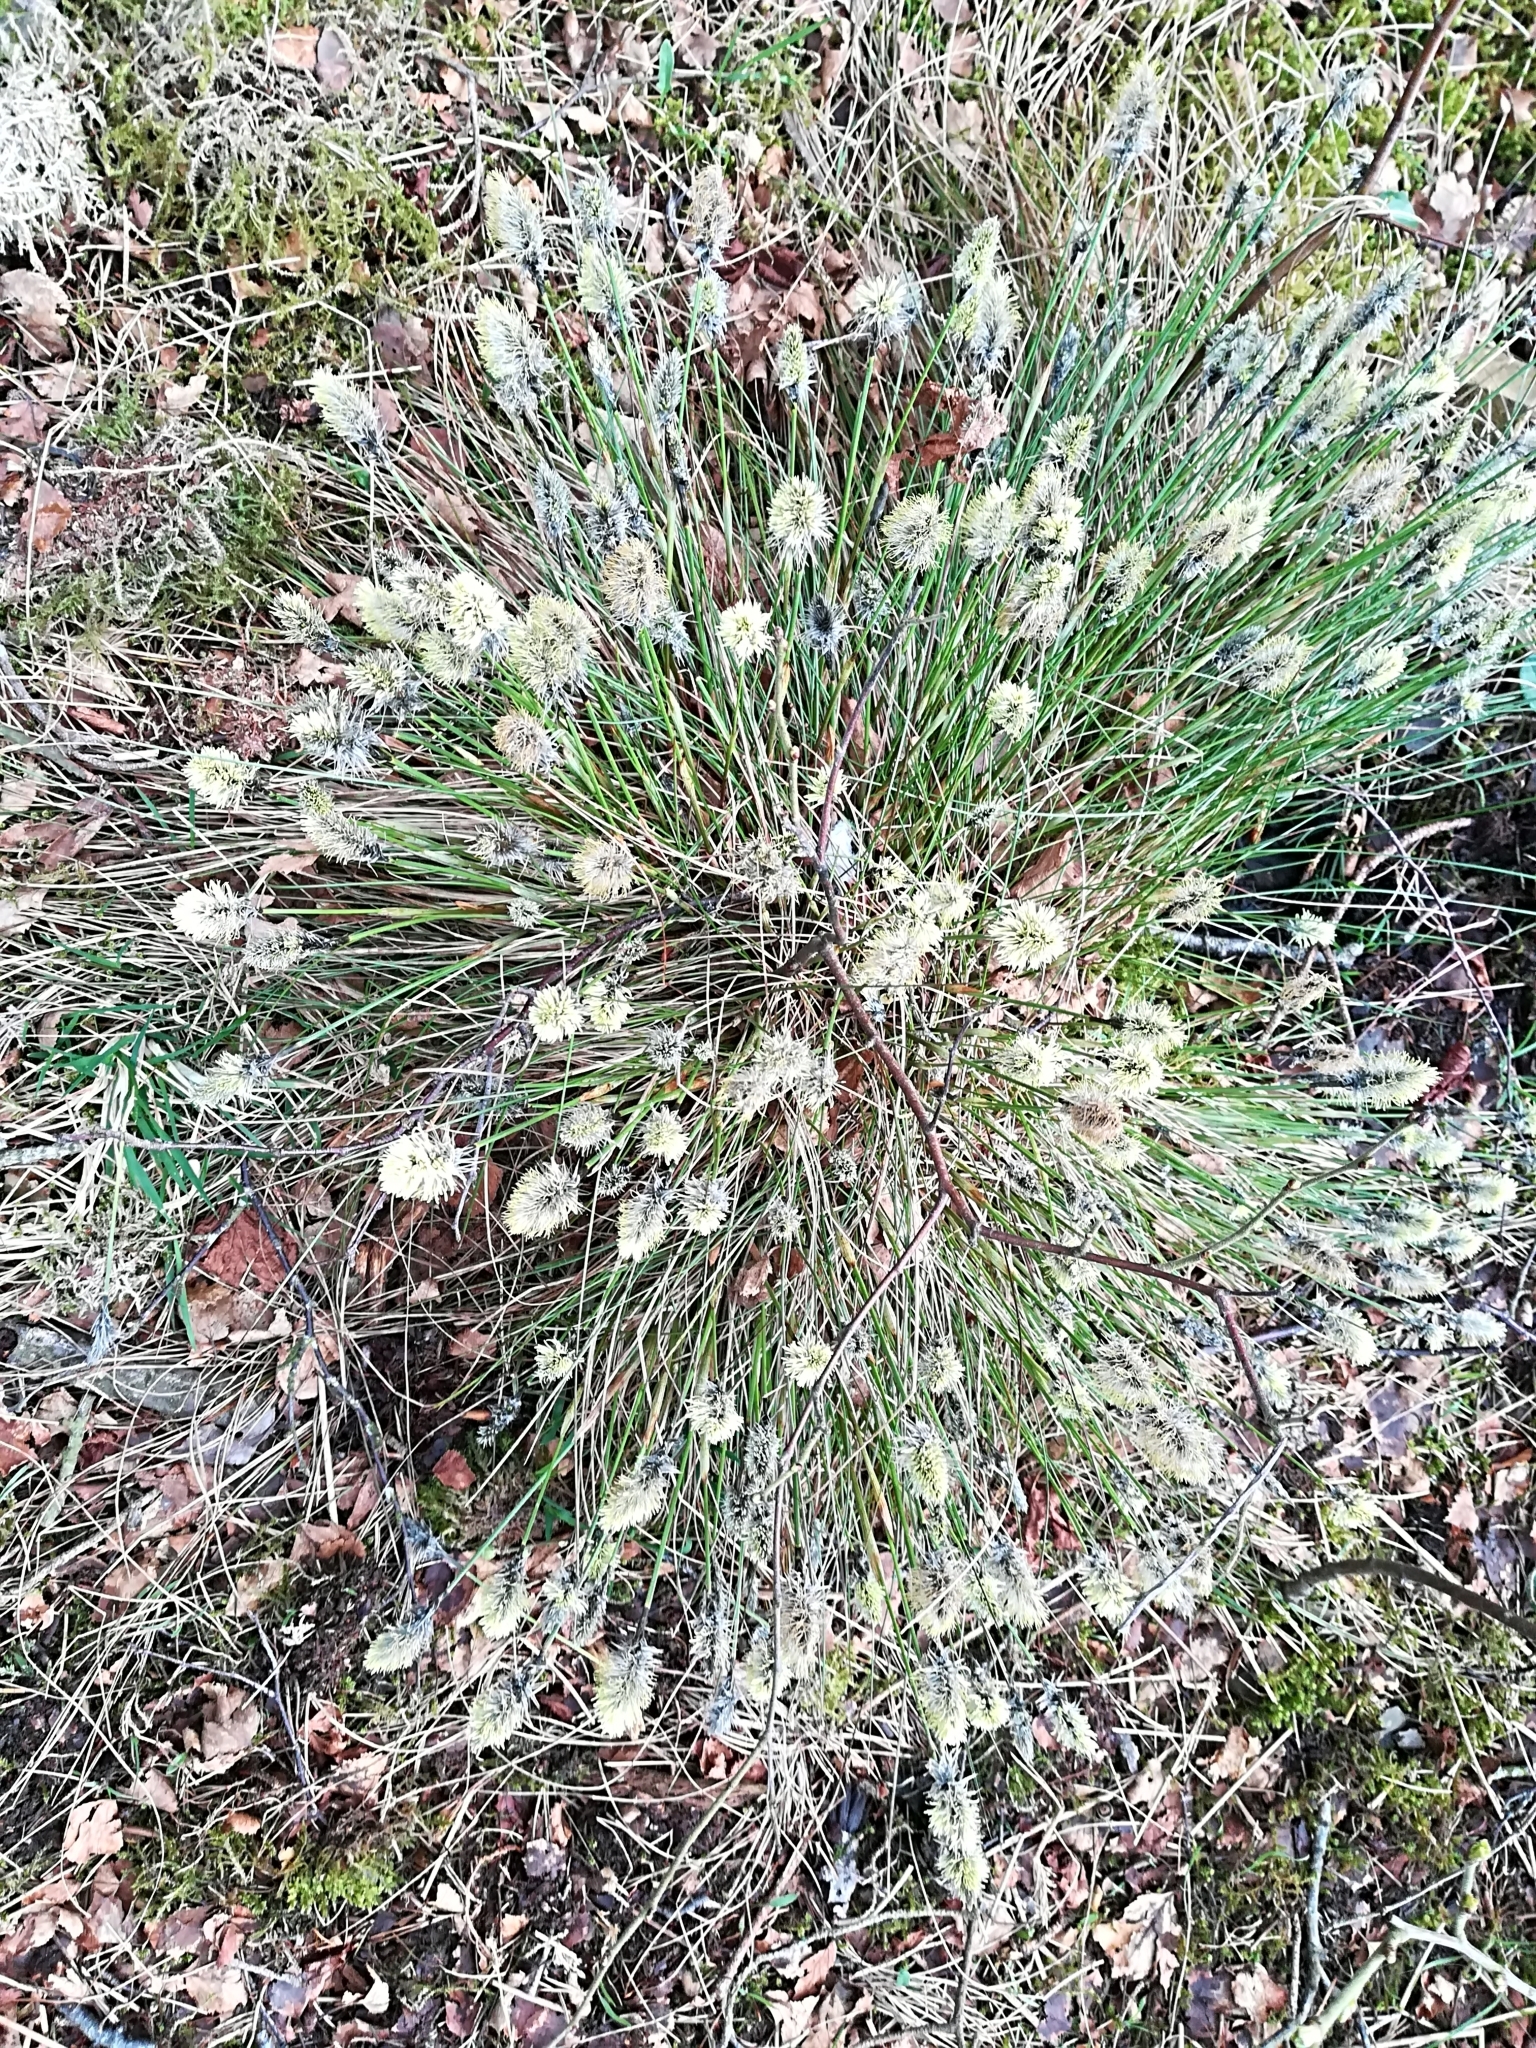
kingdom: Plantae
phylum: Tracheophyta
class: Liliopsida
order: Poales
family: Cyperaceae
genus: Eriophorum
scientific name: Eriophorum vaginatum
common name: Hare's-tail cottongrass
